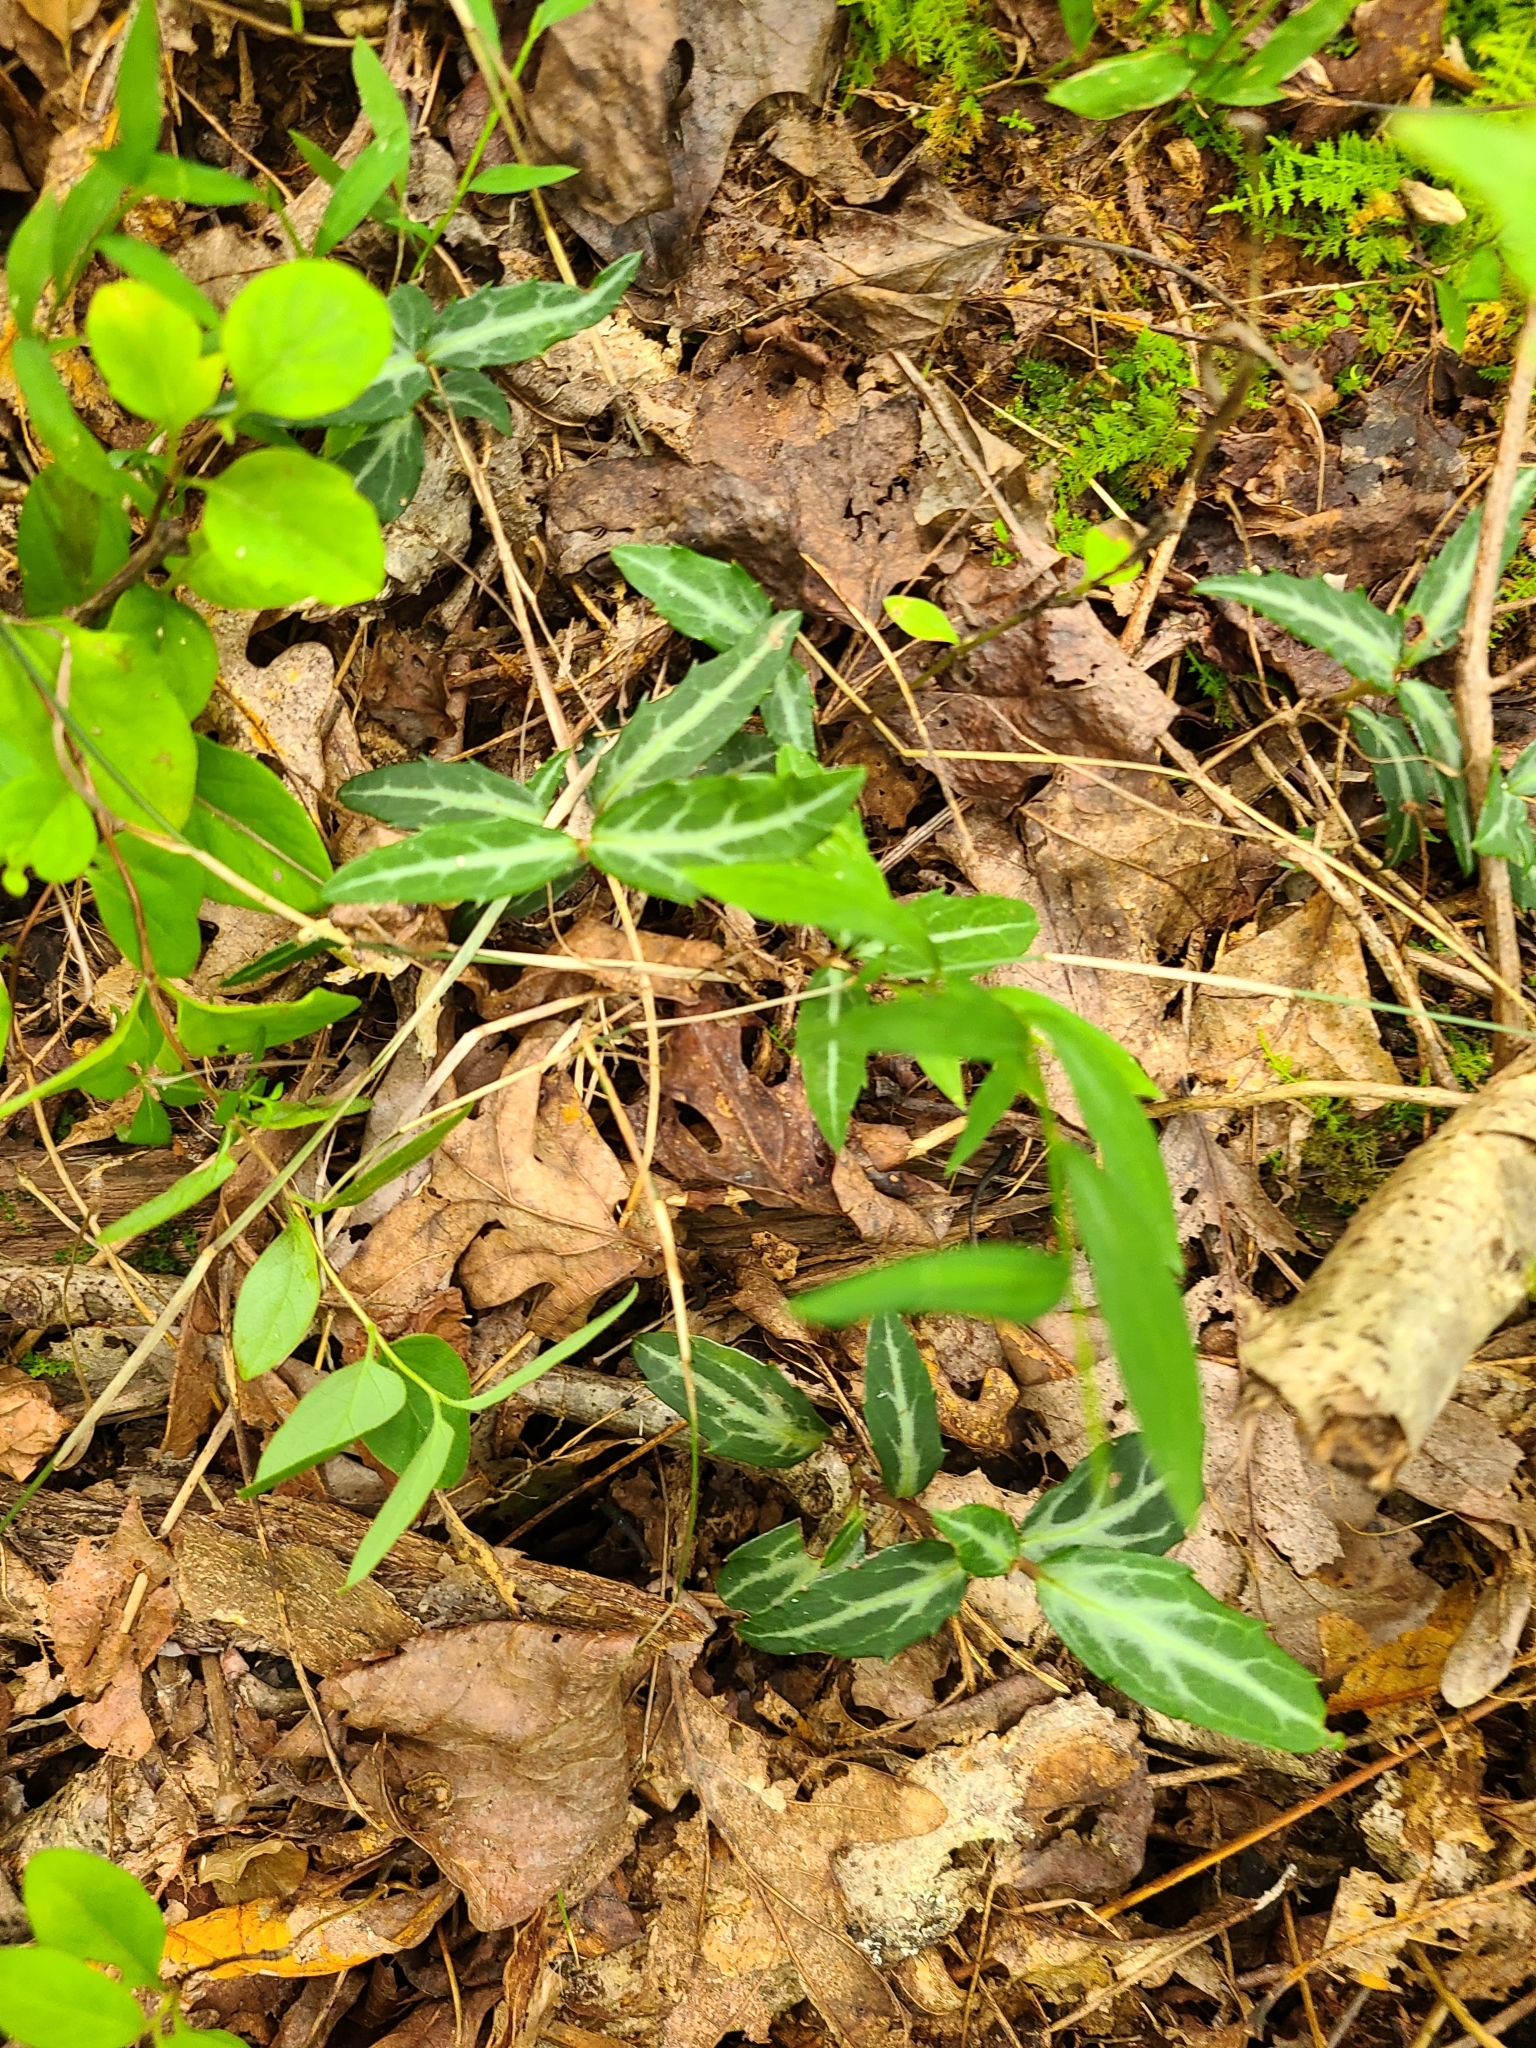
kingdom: Plantae
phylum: Tracheophyta
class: Magnoliopsida
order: Ericales
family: Ericaceae
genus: Chimaphila
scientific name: Chimaphila maculata
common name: Spotted pipsissewa
